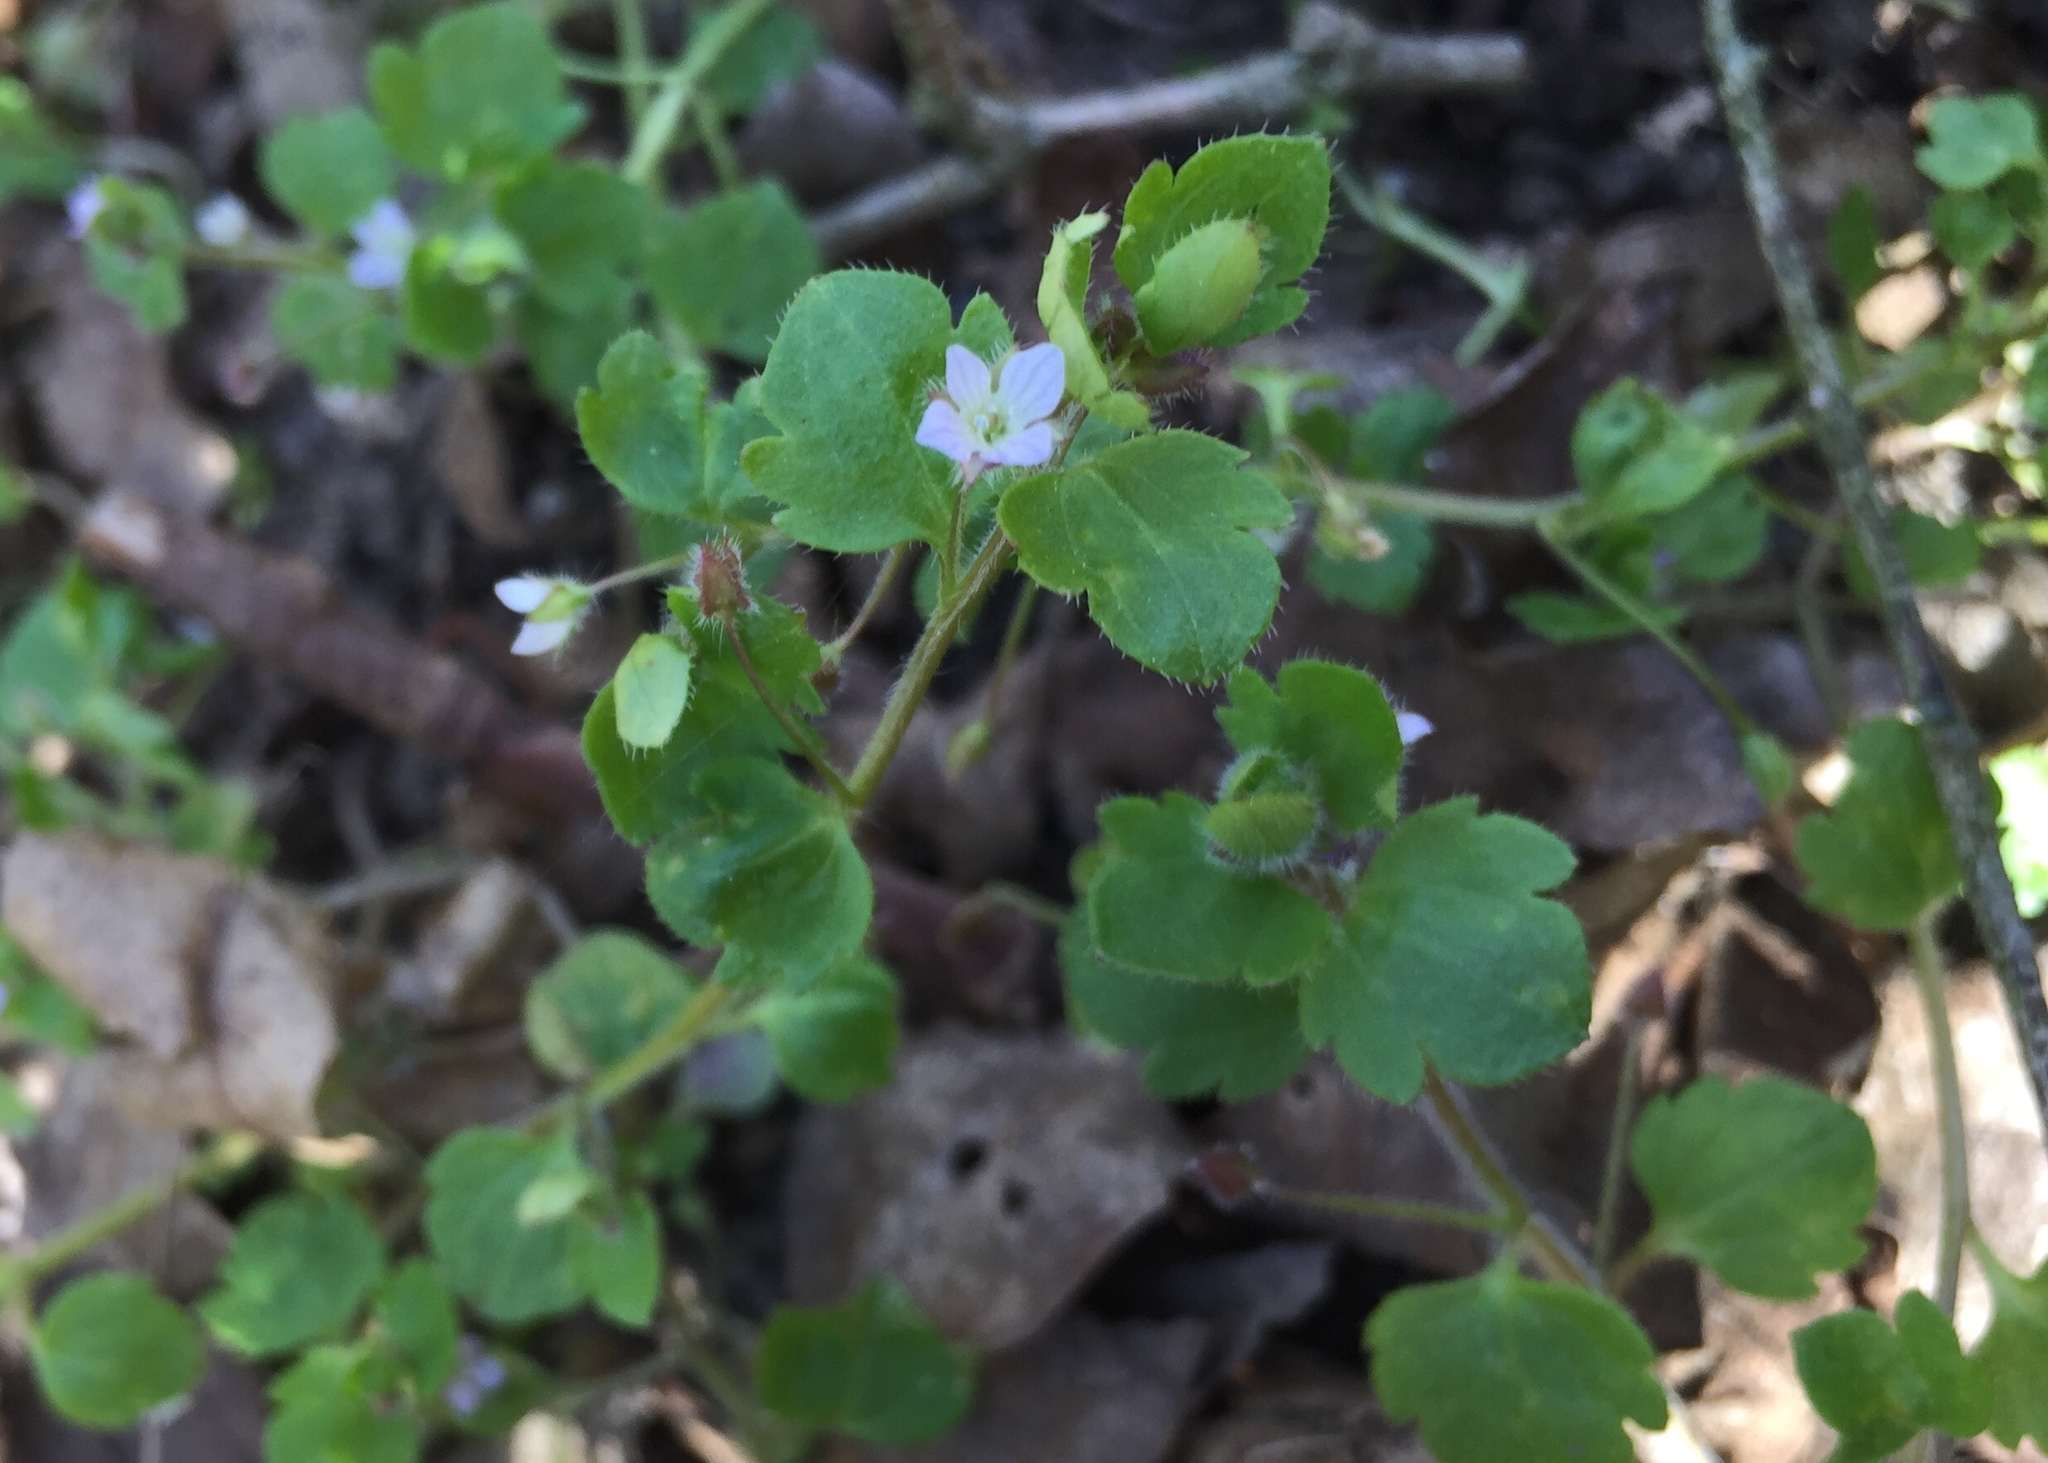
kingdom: Plantae
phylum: Tracheophyta
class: Magnoliopsida
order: Lamiales
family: Plantaginaceae
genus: Veronica
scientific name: Veronica sublobata
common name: False ivy-leaved speedwell
